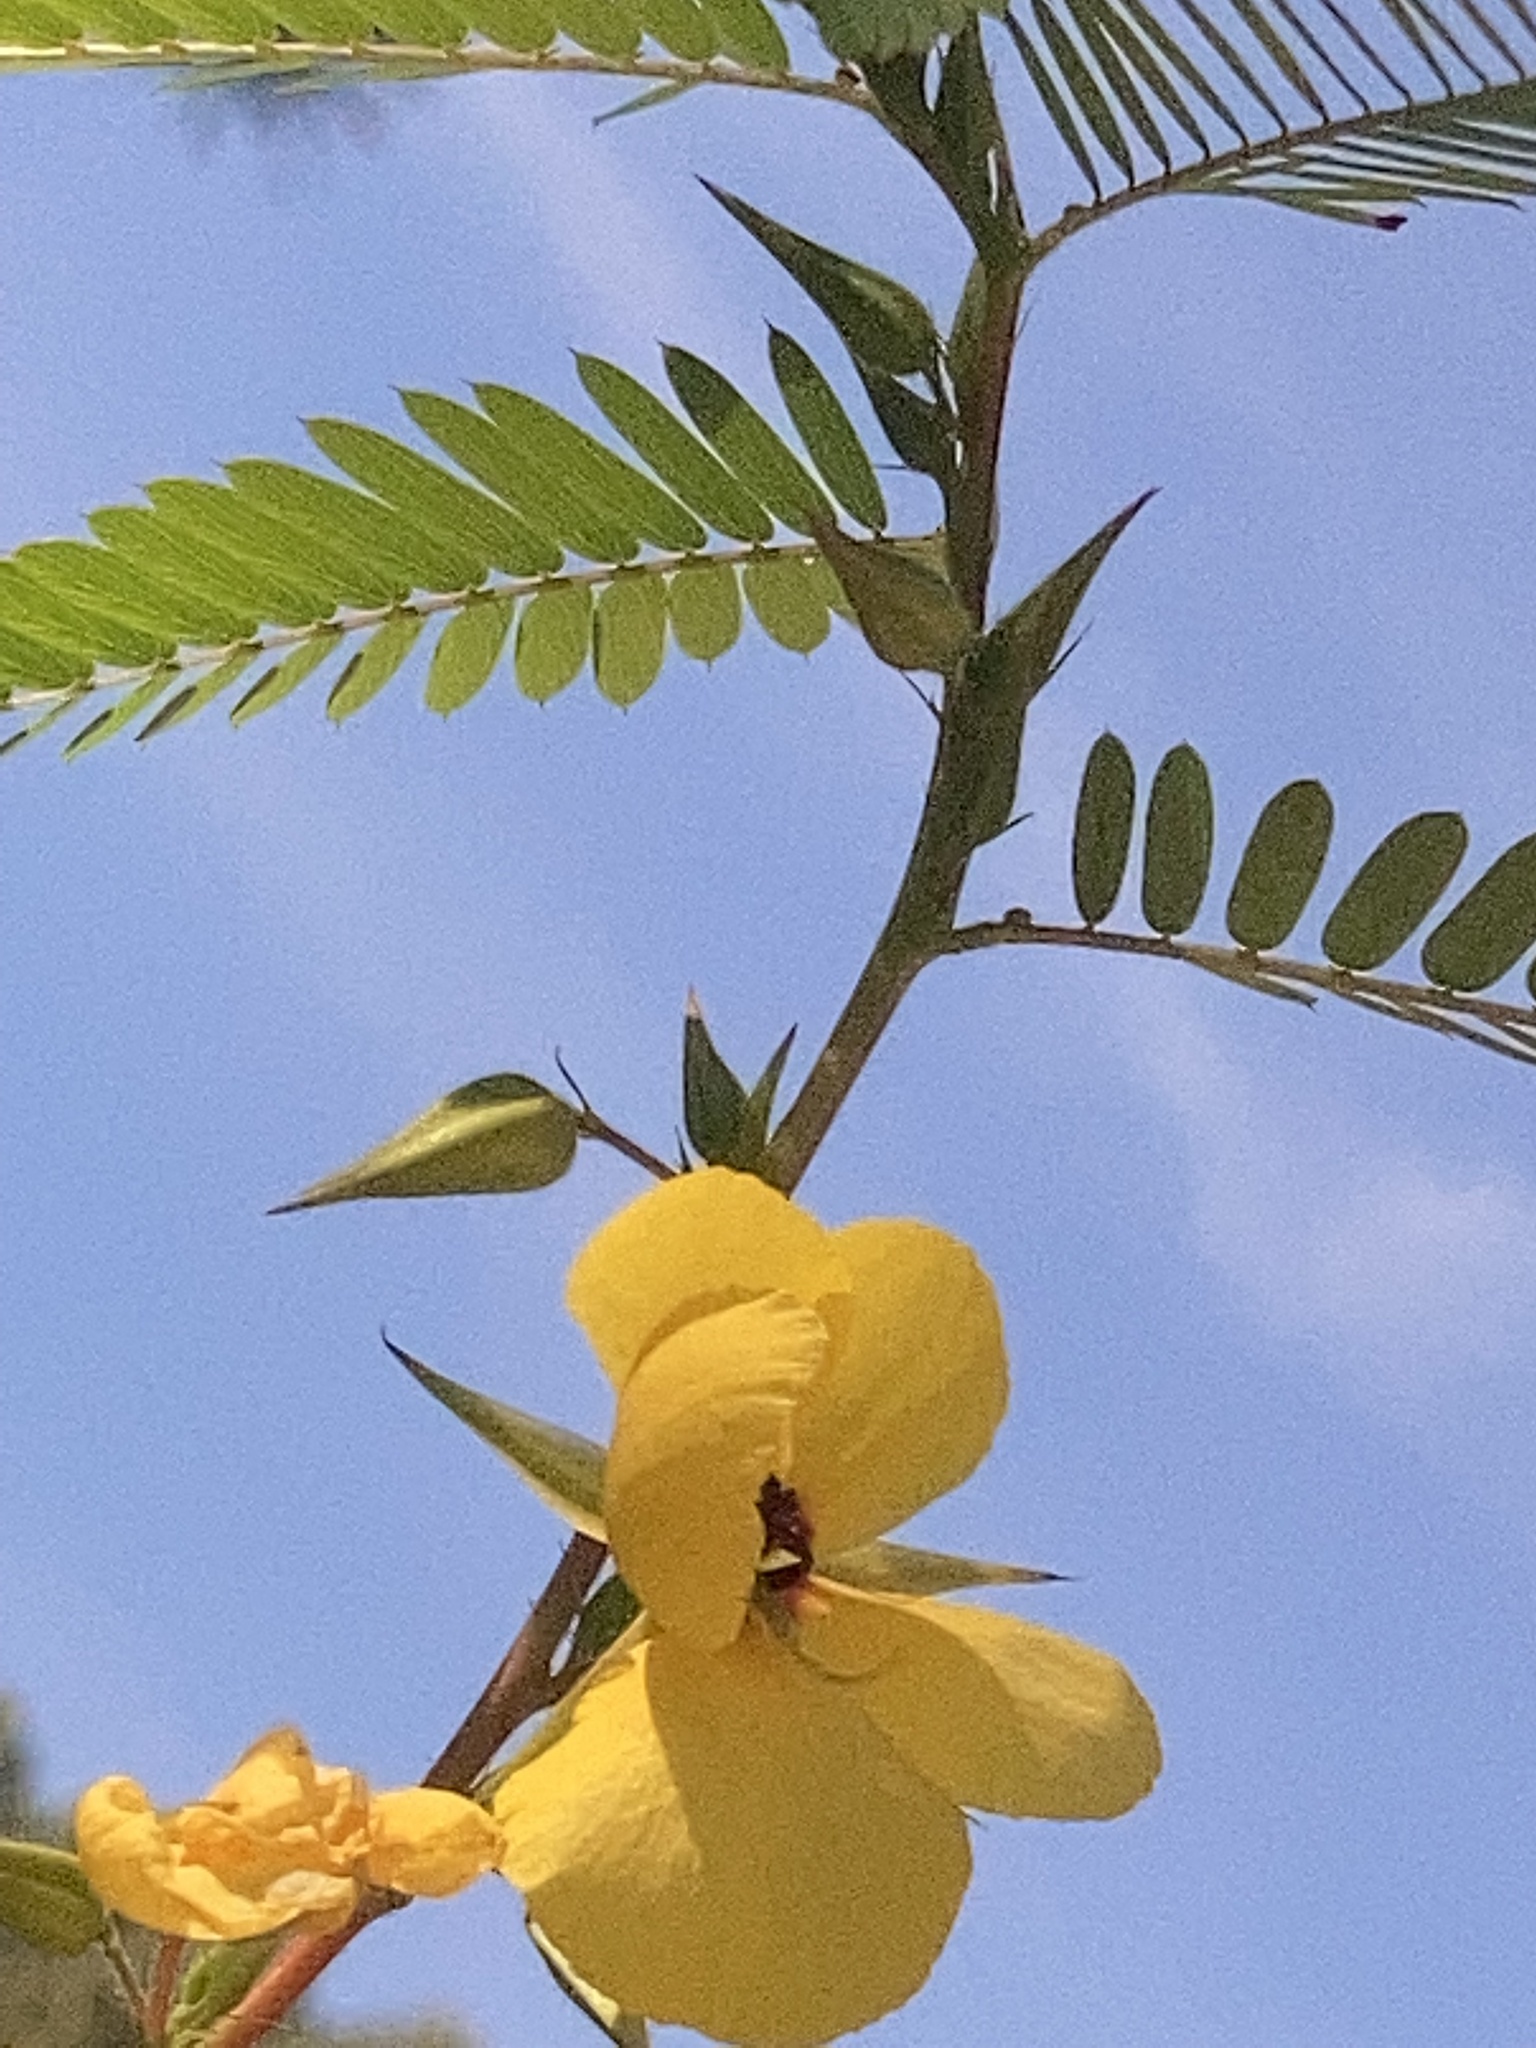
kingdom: Plantae
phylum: Tracheophyta
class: Magnoliopsida
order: Fabales
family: Fabaceae
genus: Chamaecrista
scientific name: Chamaecrista fasciculata
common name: Golden cassia
